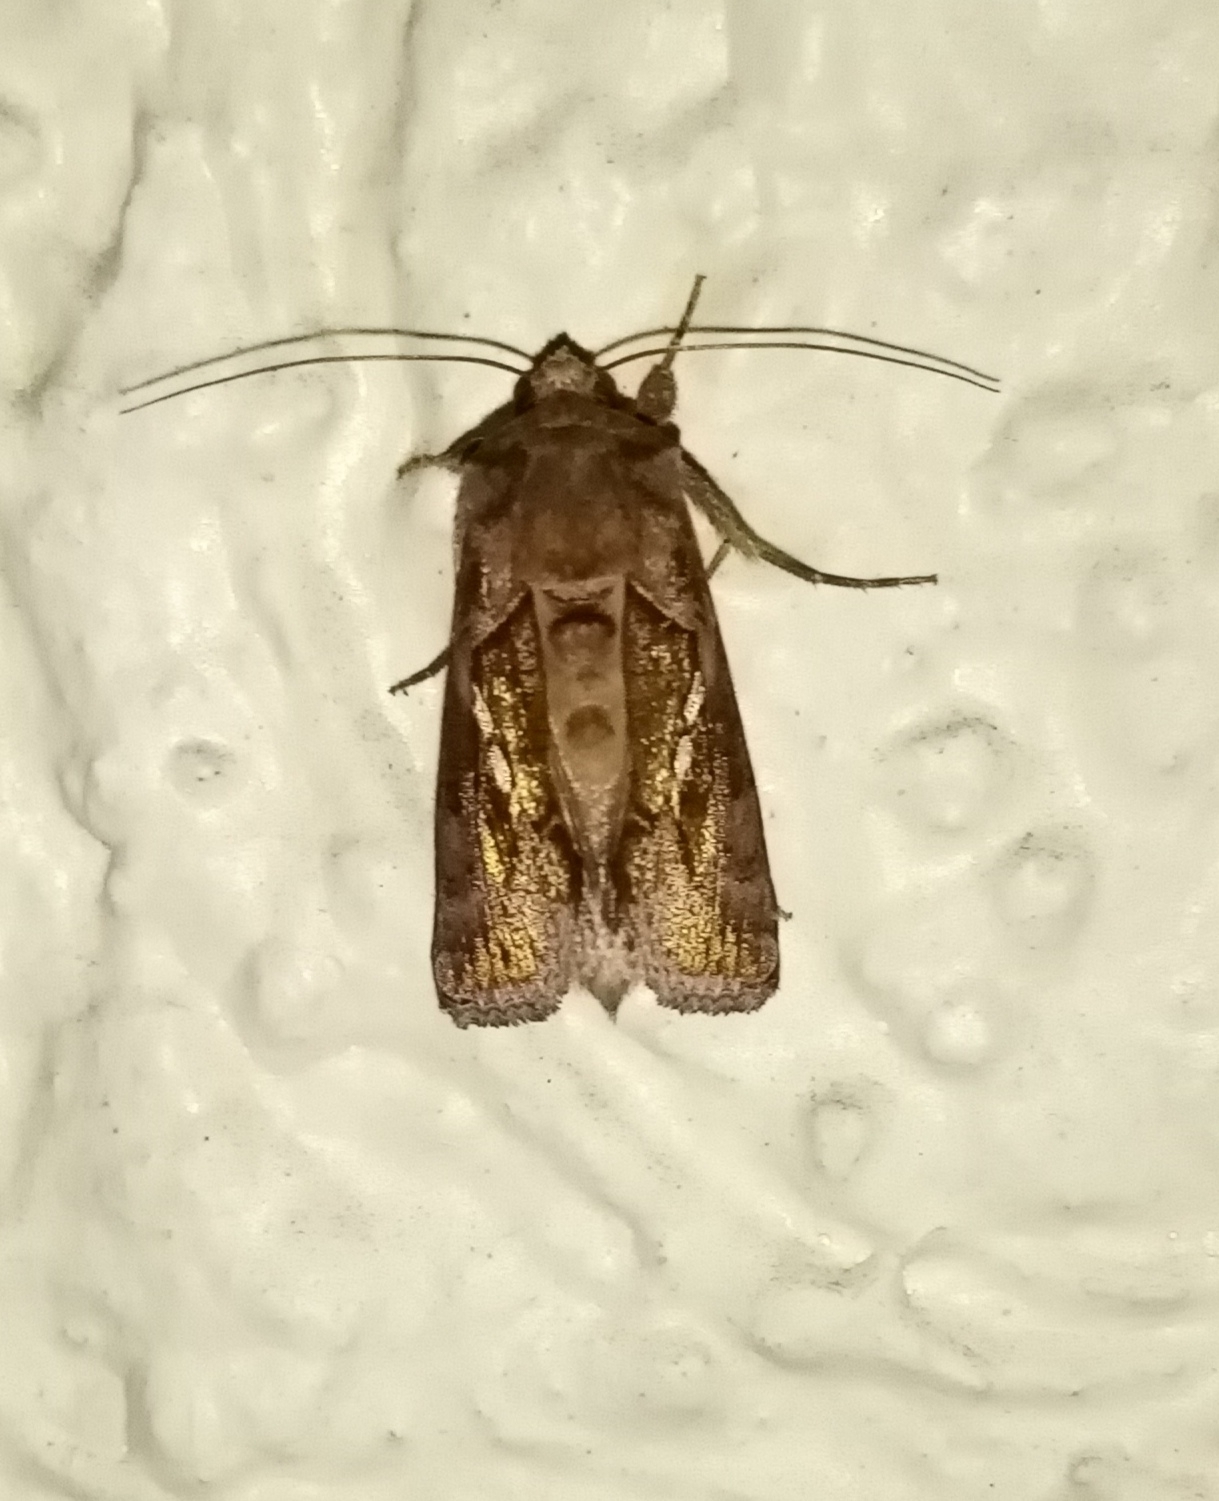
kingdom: Animalia
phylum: Arthropoda
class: Insecta
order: Lepidoptera
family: Noctuidae
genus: Chrysodeixis
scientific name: Chrysodeixis chalcites
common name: Golden twin-spot
